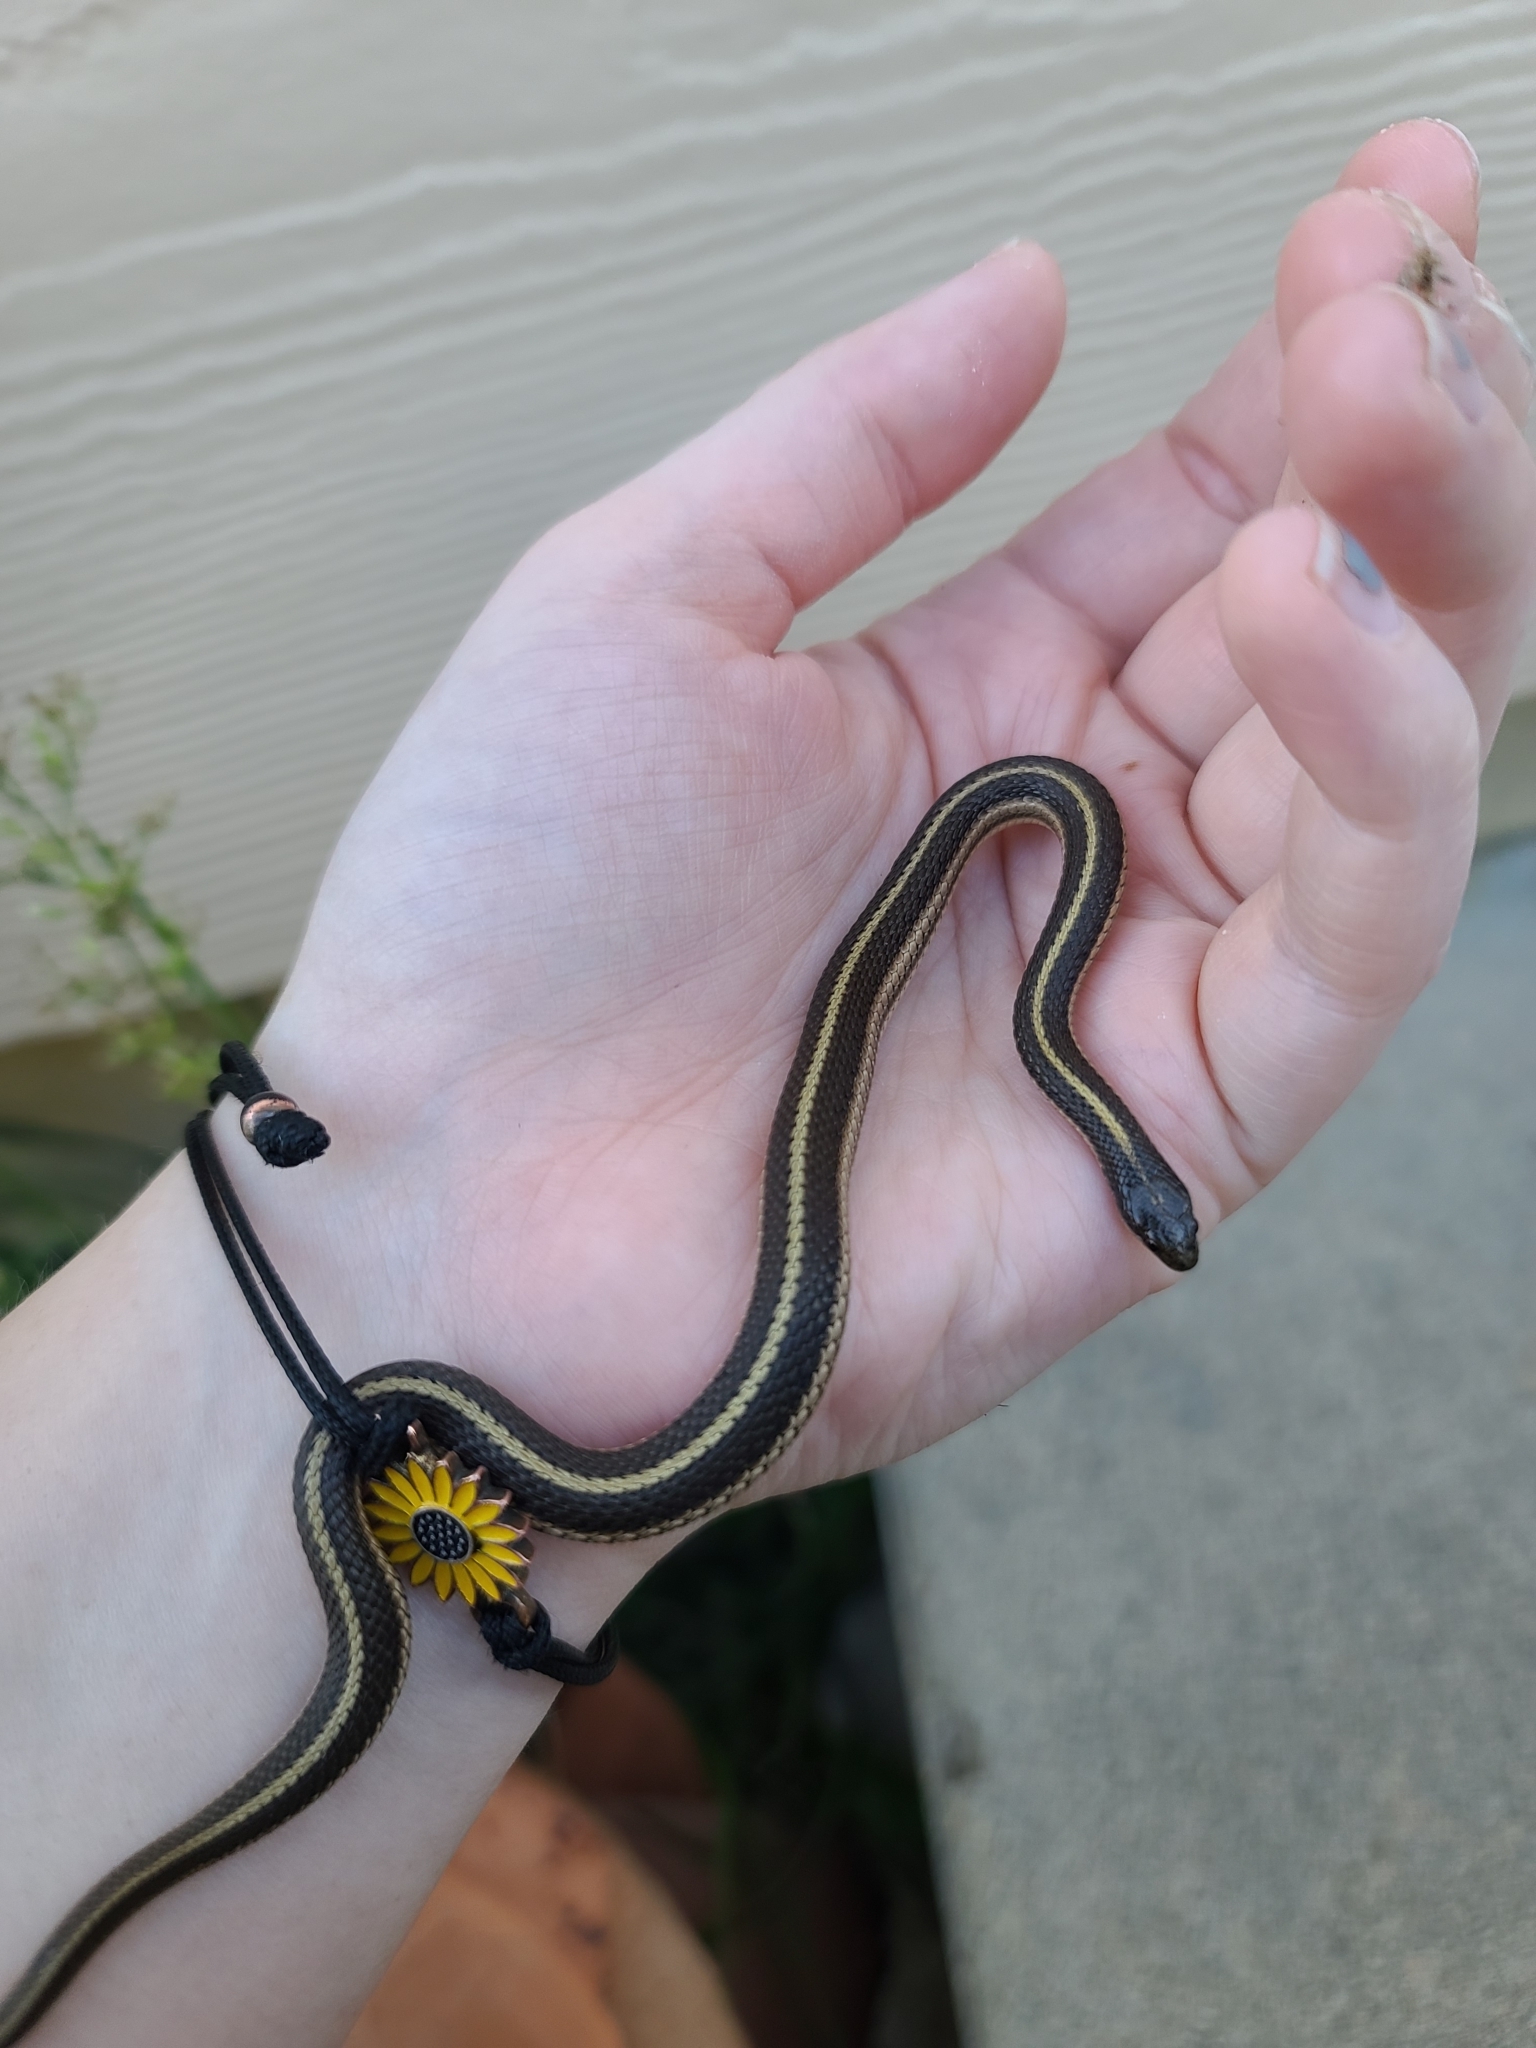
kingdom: Animalia
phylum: Chordata
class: Squamata
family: Colubridae
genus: Tropidoclonion
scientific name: Tropidoclonion lineatum
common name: Lined snake
